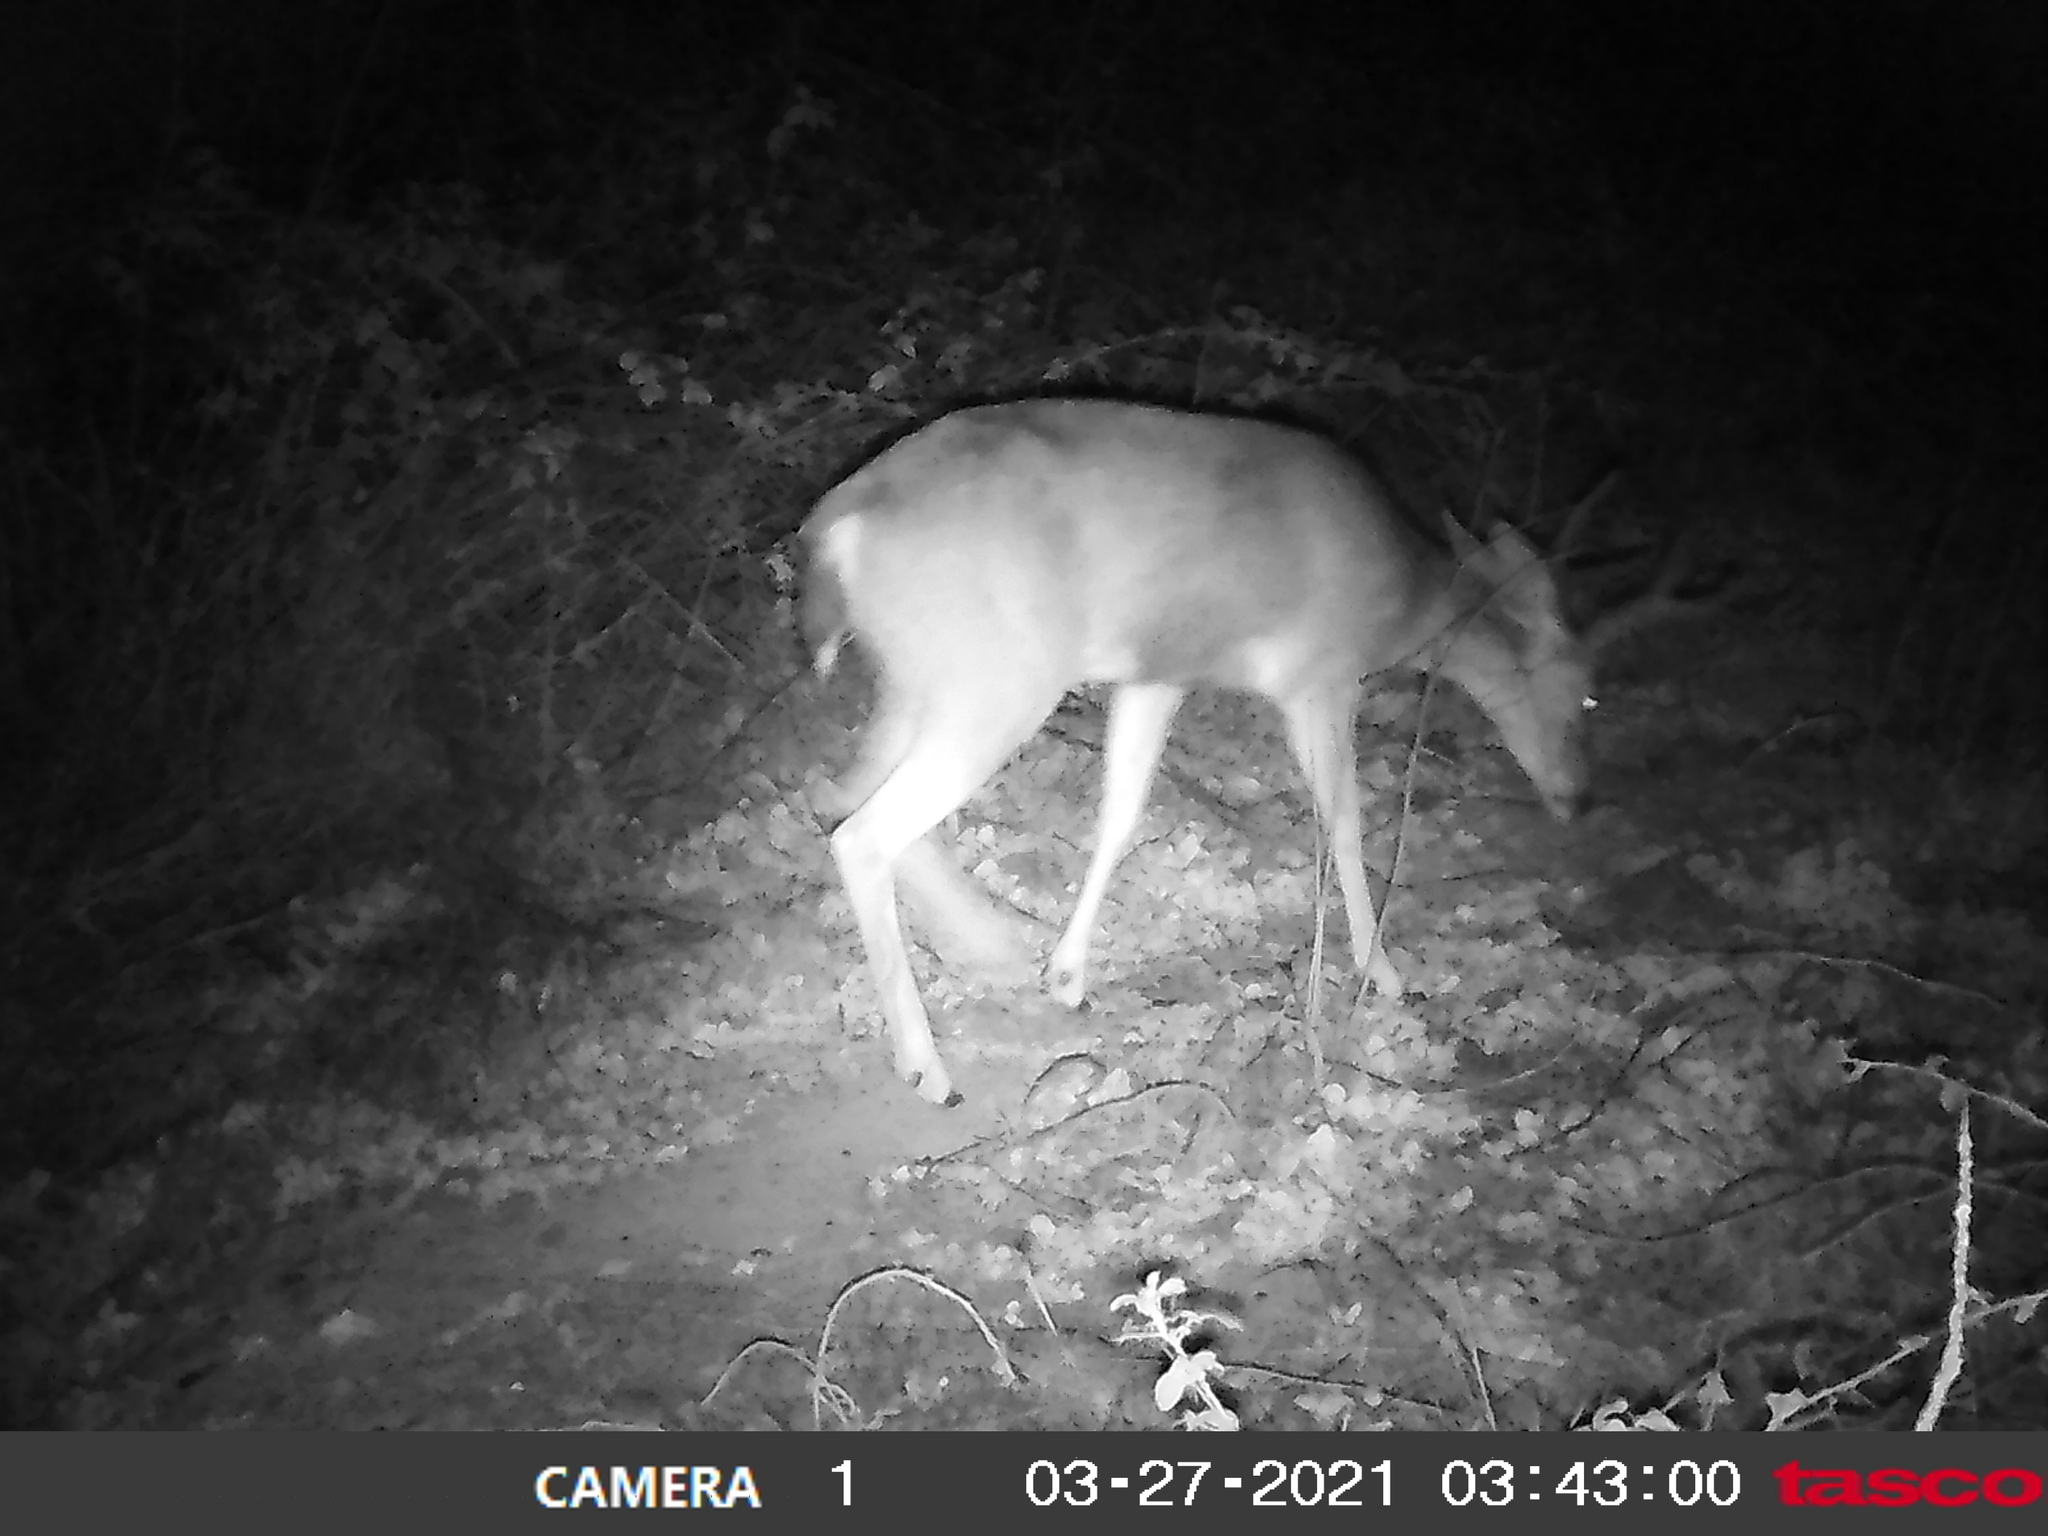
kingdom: Animalia
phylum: Chordata
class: Mammalia
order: Artiodactyla
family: Cervidae
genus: Odocoileus
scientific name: Odocoileus hemionus
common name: Mule deer
